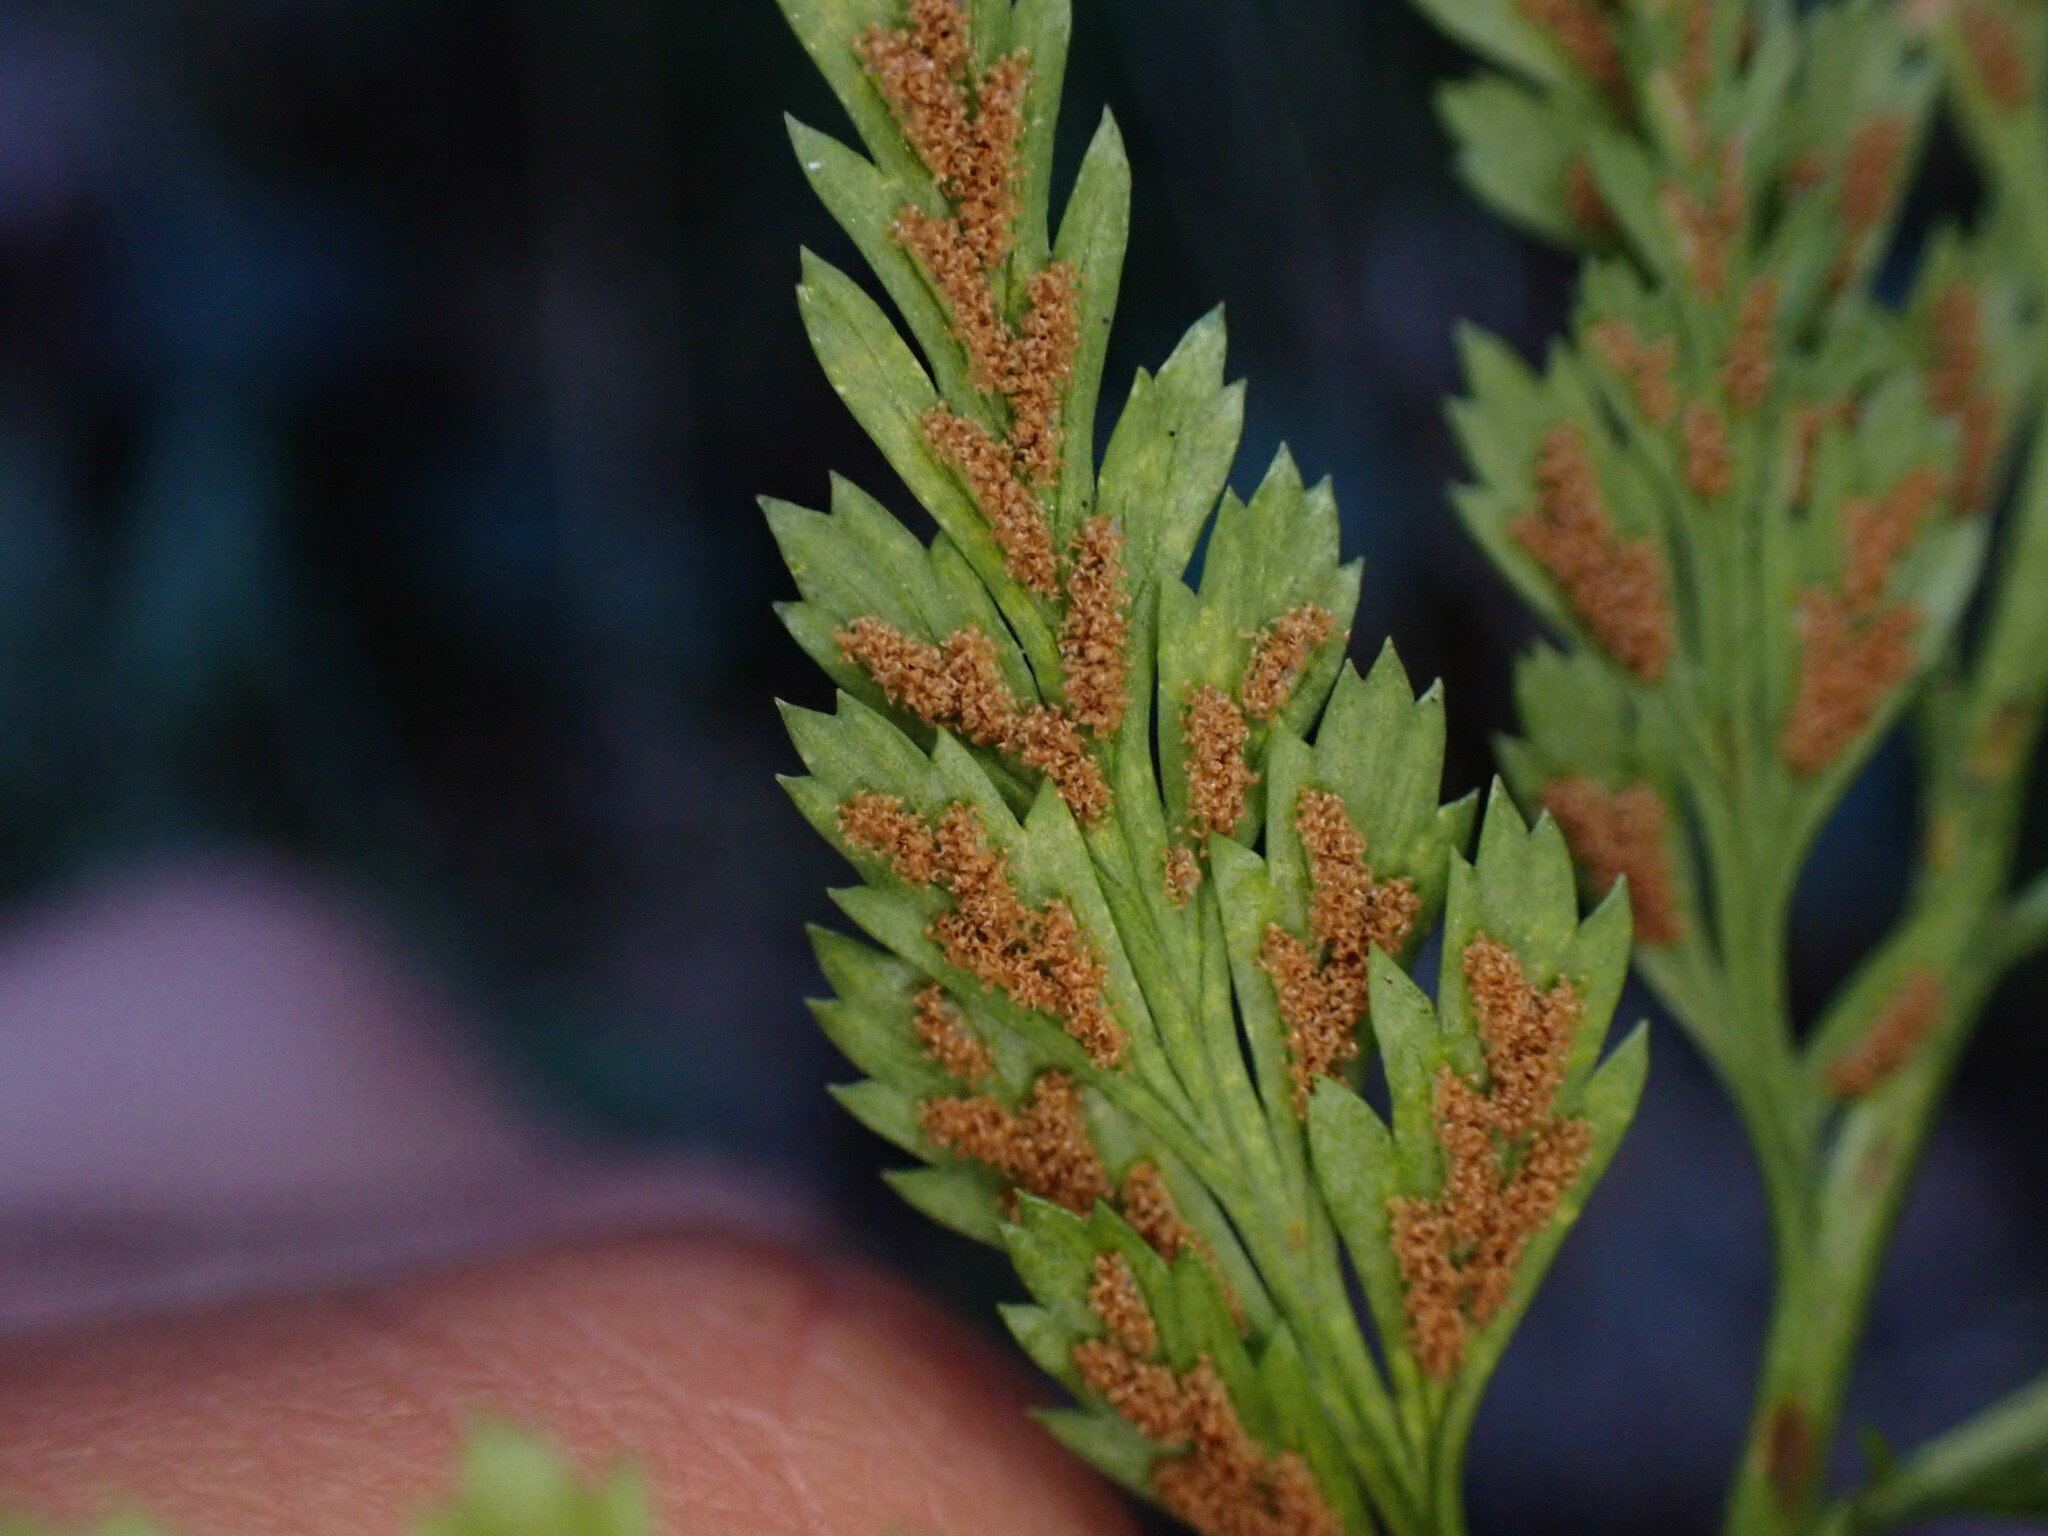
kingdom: Plantae
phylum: Tracheophyta
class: Polypodiopsida
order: Polypodiales
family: Aspleniaceae
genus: Asplenium
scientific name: Asplenium onopteris
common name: Irish spleenwort
